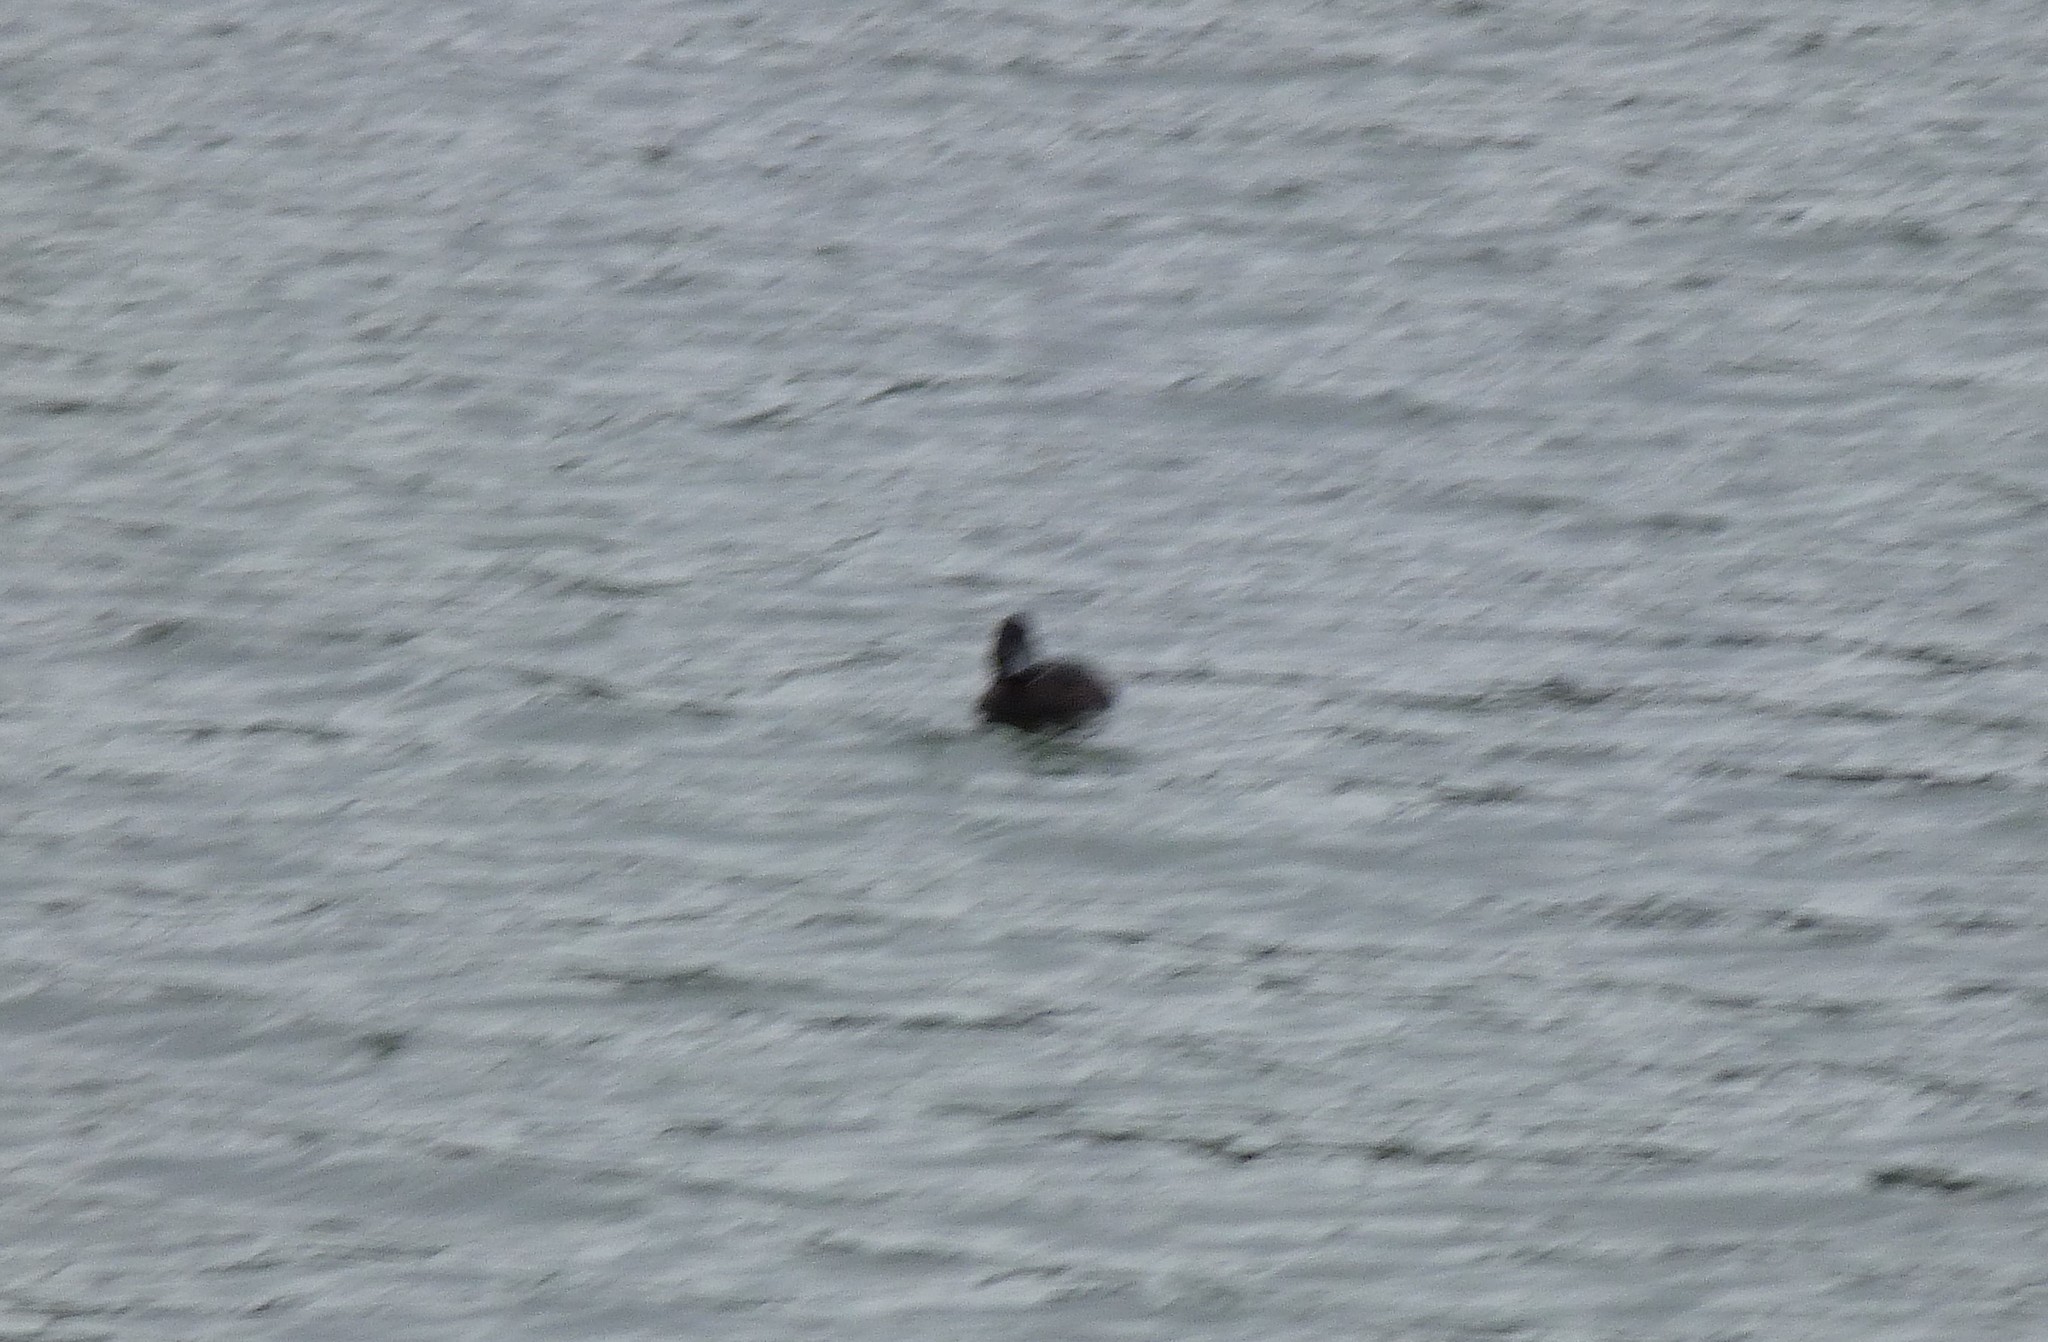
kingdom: Animalia
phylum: Chordata
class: Aves
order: Anseriformes
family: Anatidae
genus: Aythya
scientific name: Aythya novaeseelandiae
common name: New zealand scaup
